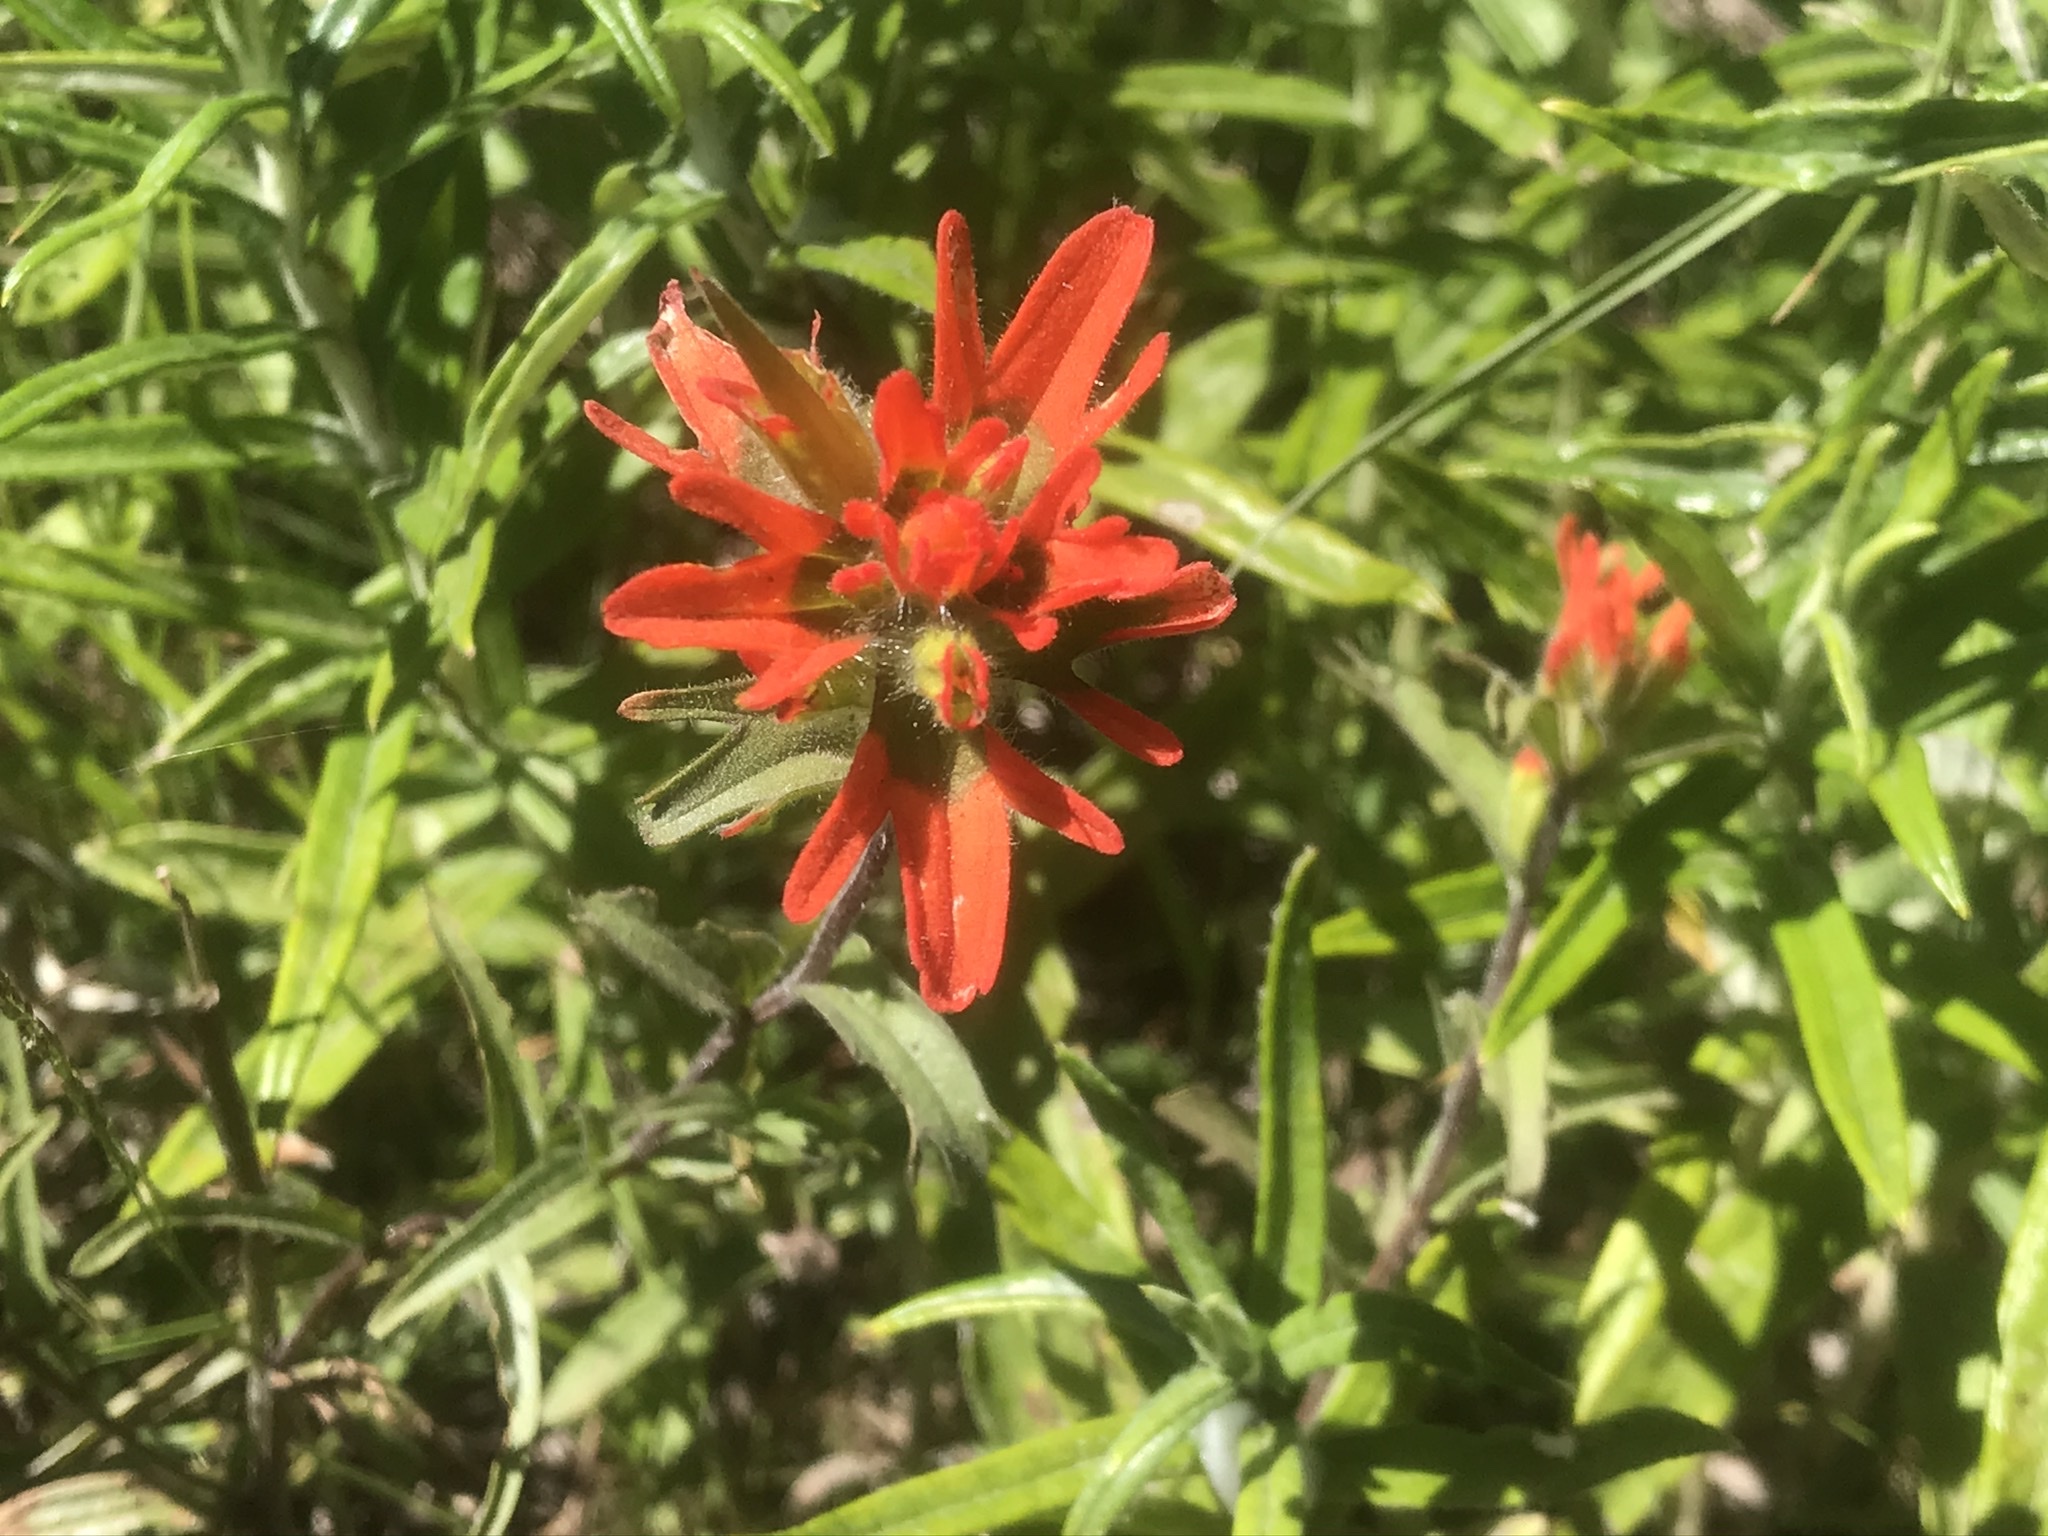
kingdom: Plantae
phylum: Tracheophyta
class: Magnoliopsida
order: Lamiales
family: Orobanchaceae
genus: Castilleja
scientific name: Castilleja hispida
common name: Bristly paintbrush
